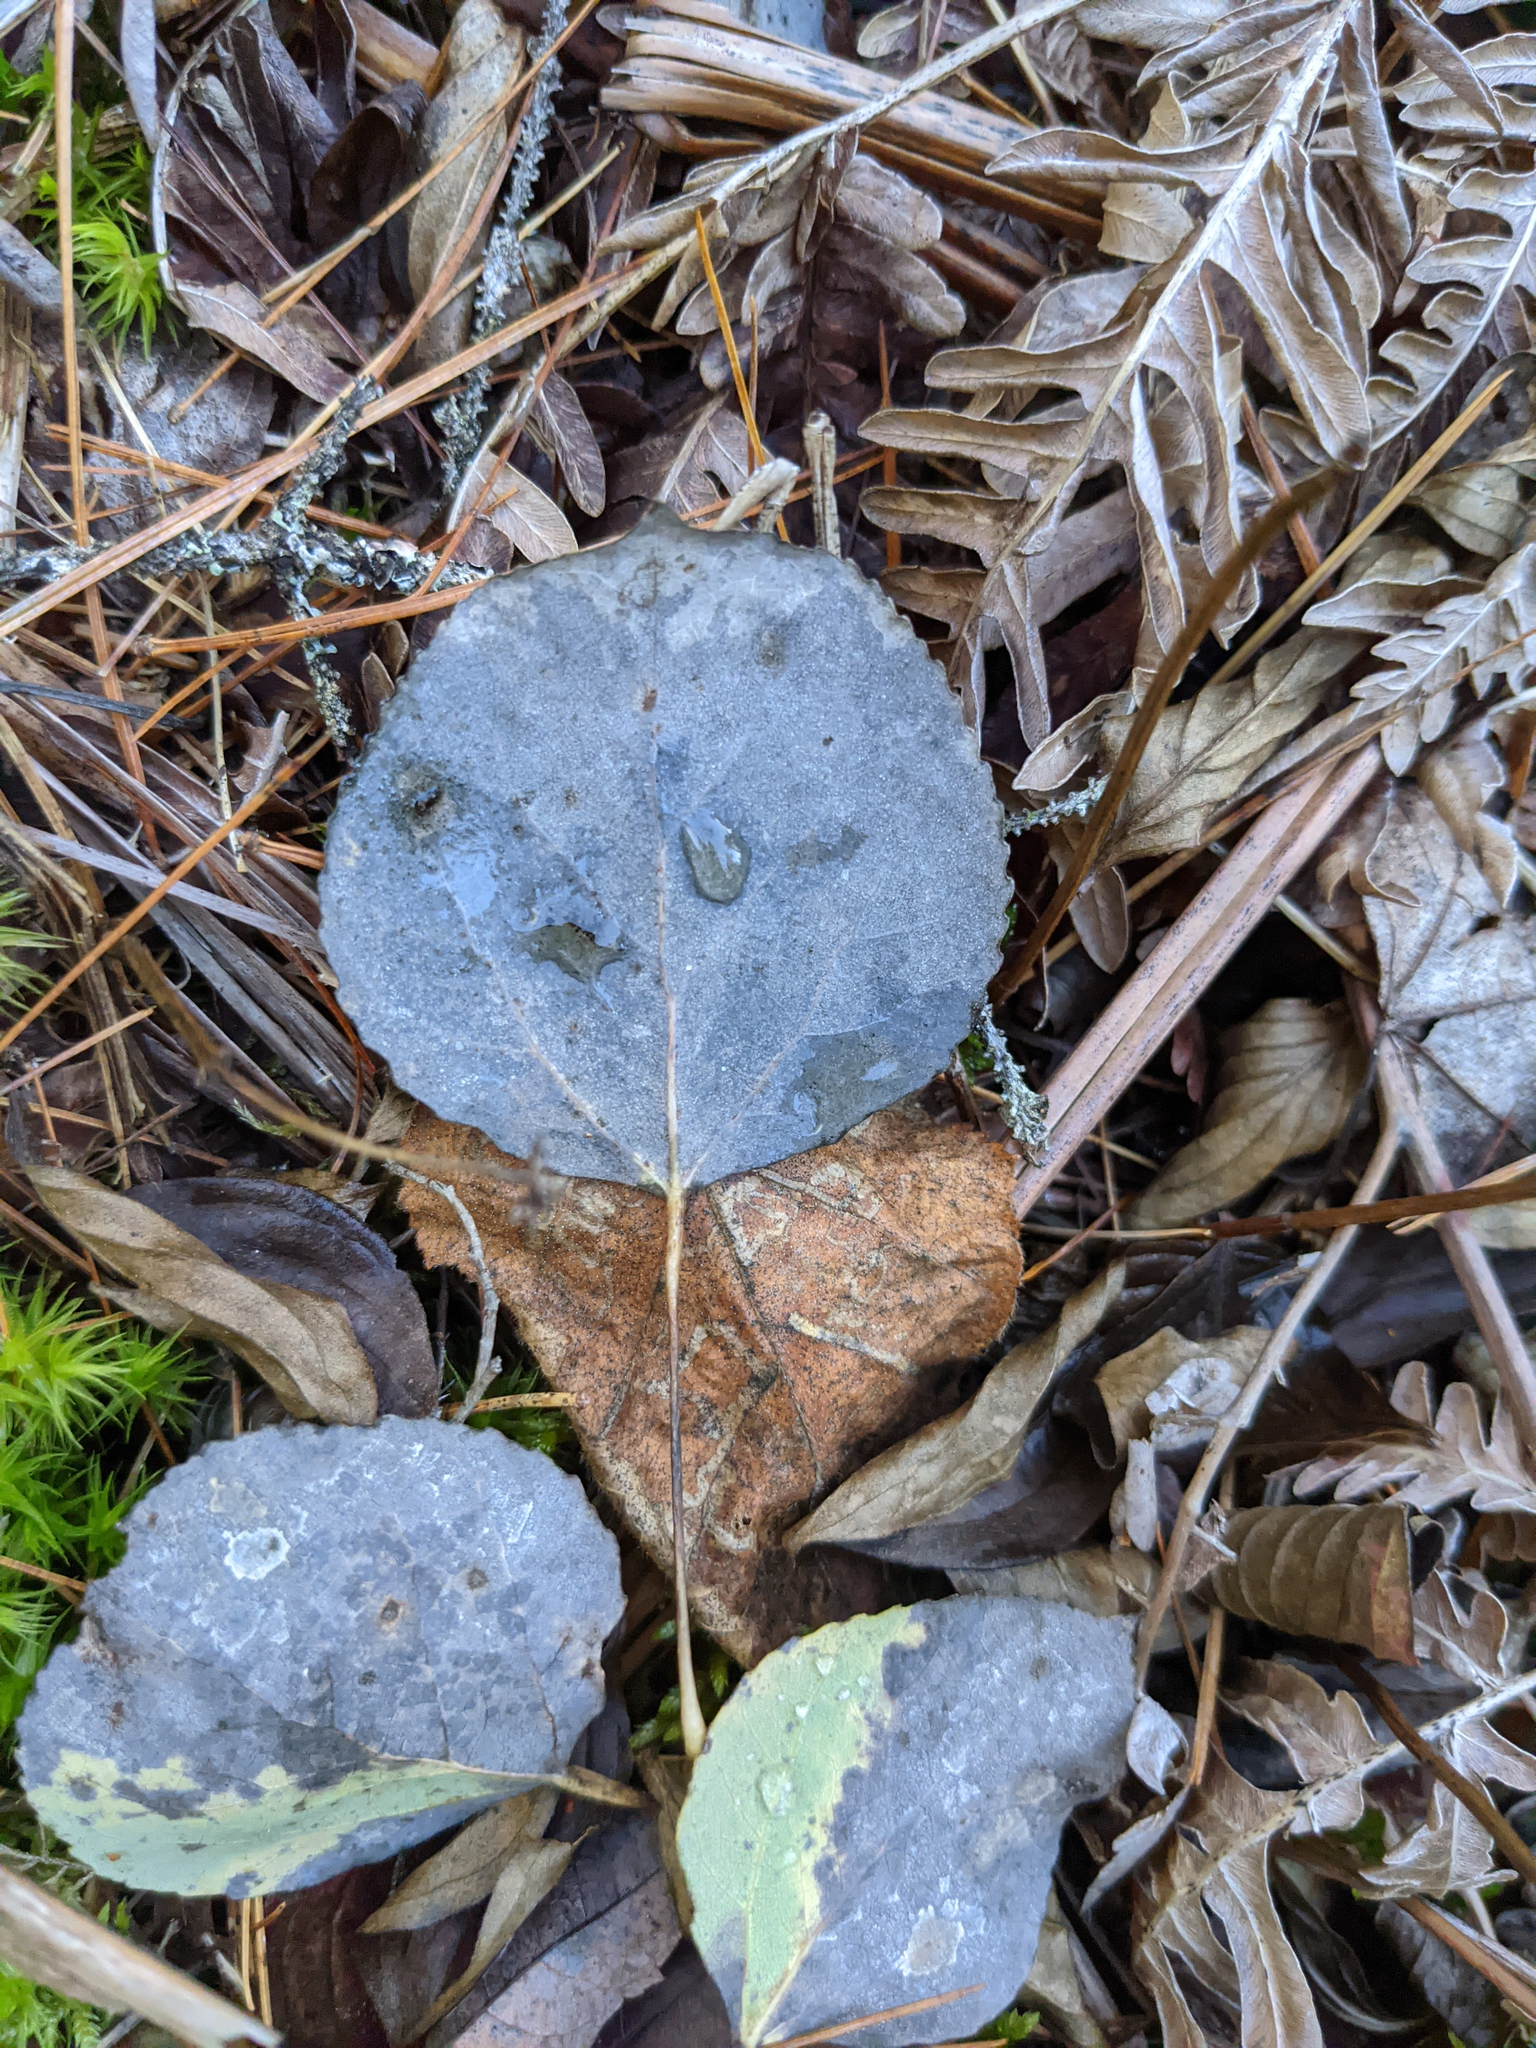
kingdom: Plantae
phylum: Tracheophyta
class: Magnoliopsida
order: Malpighiales
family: Salicaceae
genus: Populus
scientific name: Populus tremuloides
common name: Quaking aspen
